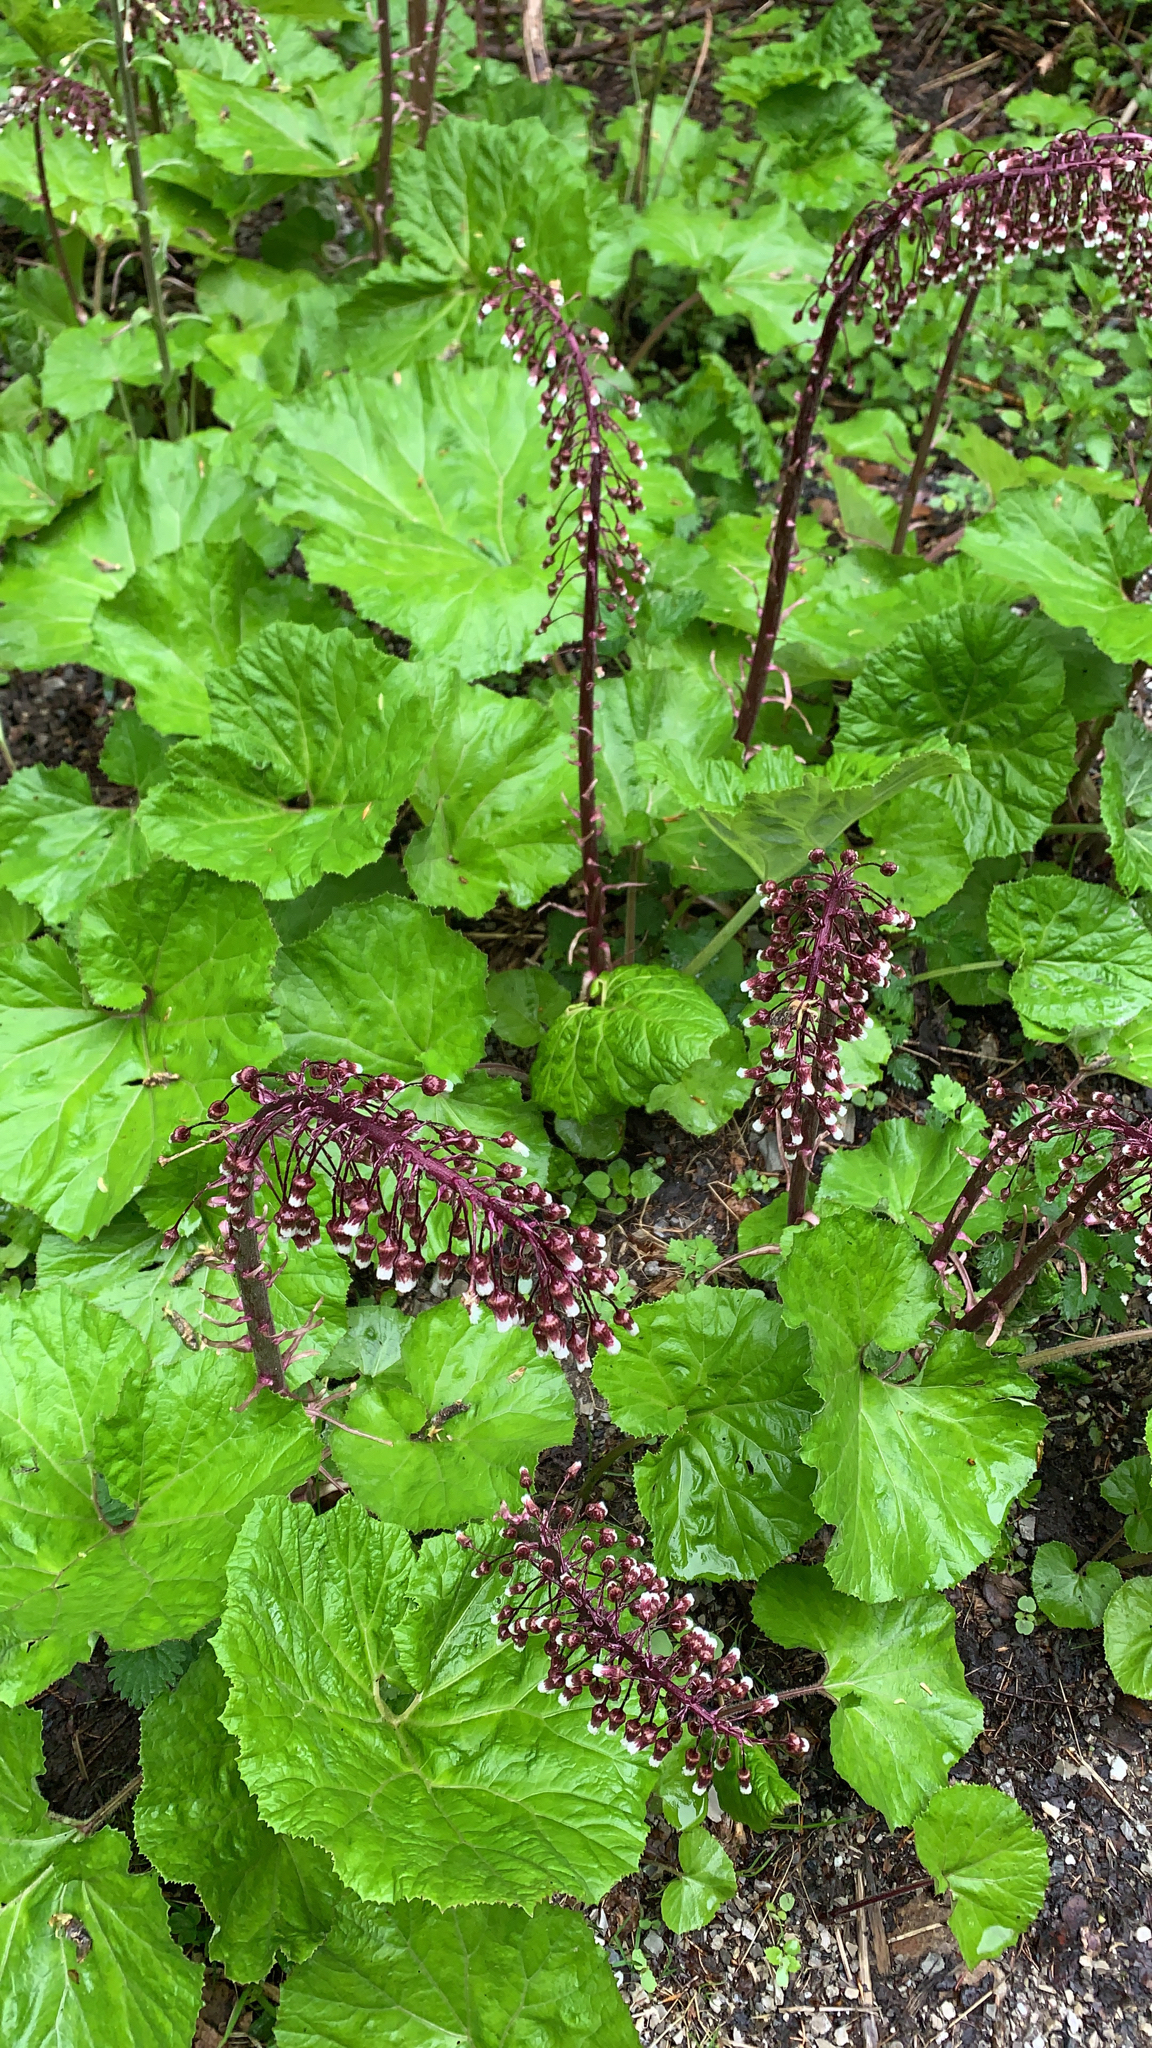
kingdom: Plantae
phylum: Tracheophyta
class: Magnoliopsida
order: Asterales
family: Asteraceae
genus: Petasites
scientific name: Petasites hybridus
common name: Butterbur
